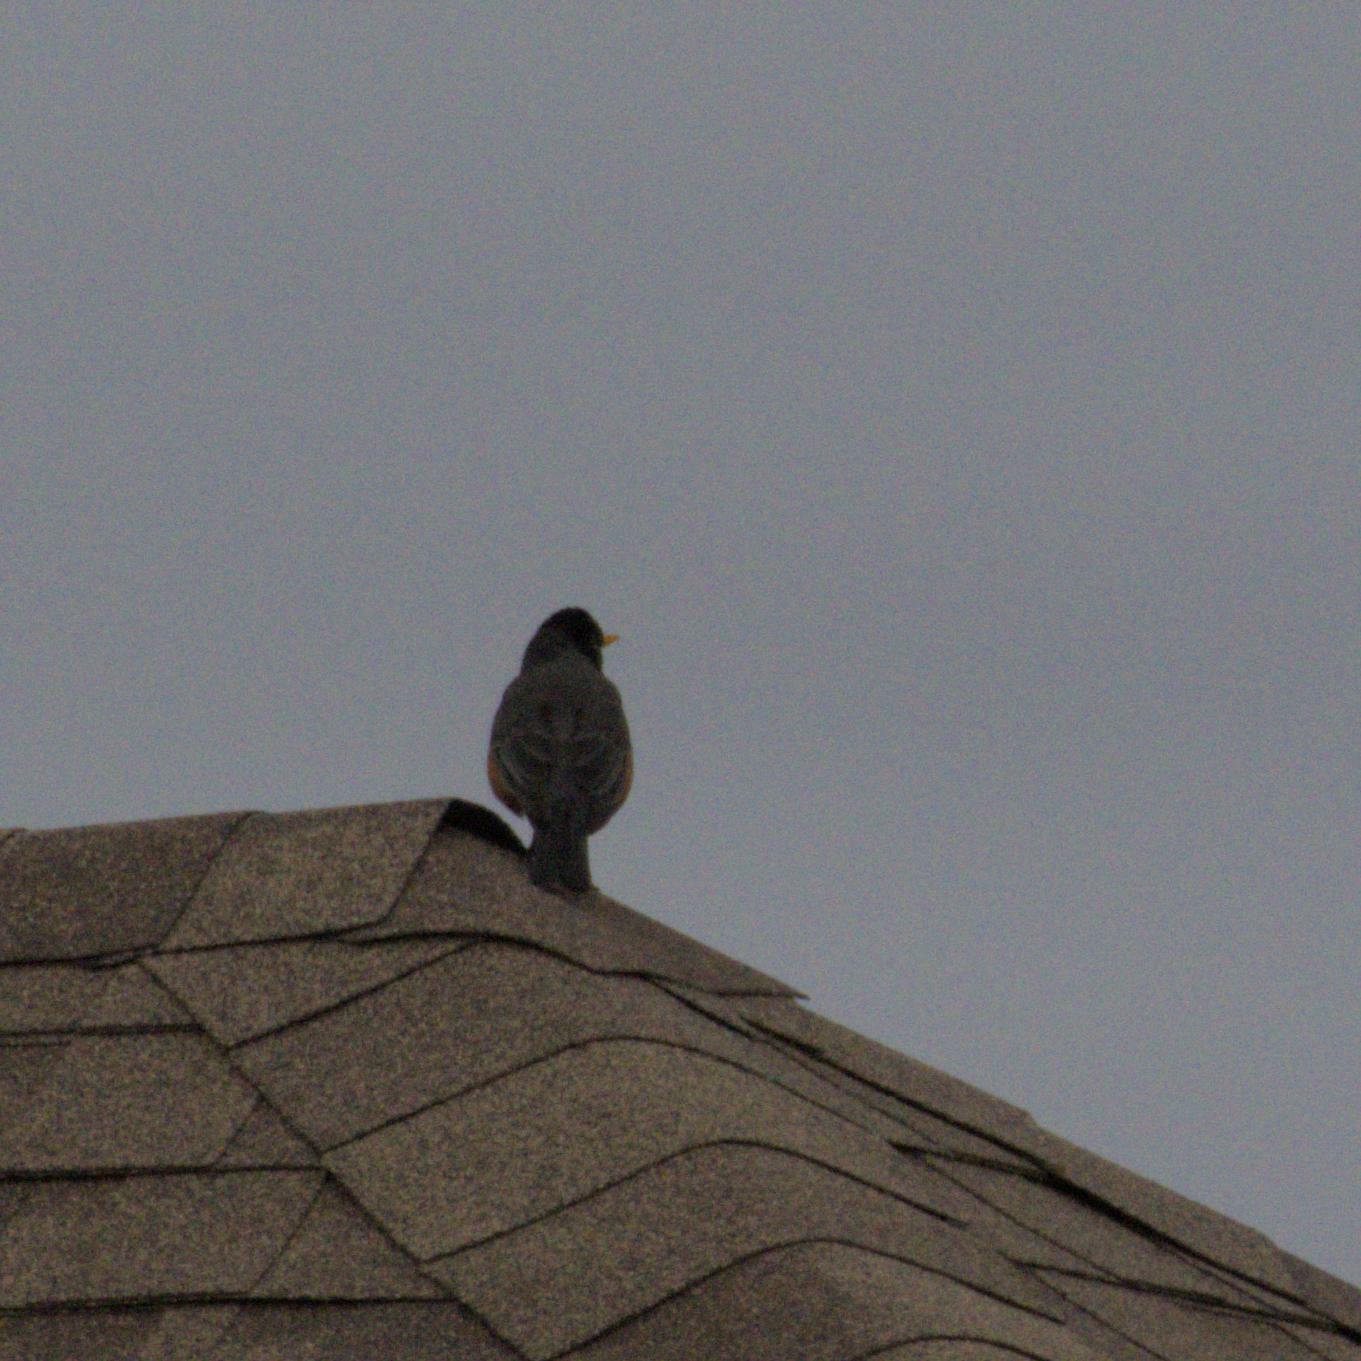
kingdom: Animalia
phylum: Chordata
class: Aves
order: Passeriformes
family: Turdidae
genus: Turdus
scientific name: Turdus migratorius
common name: American robin
